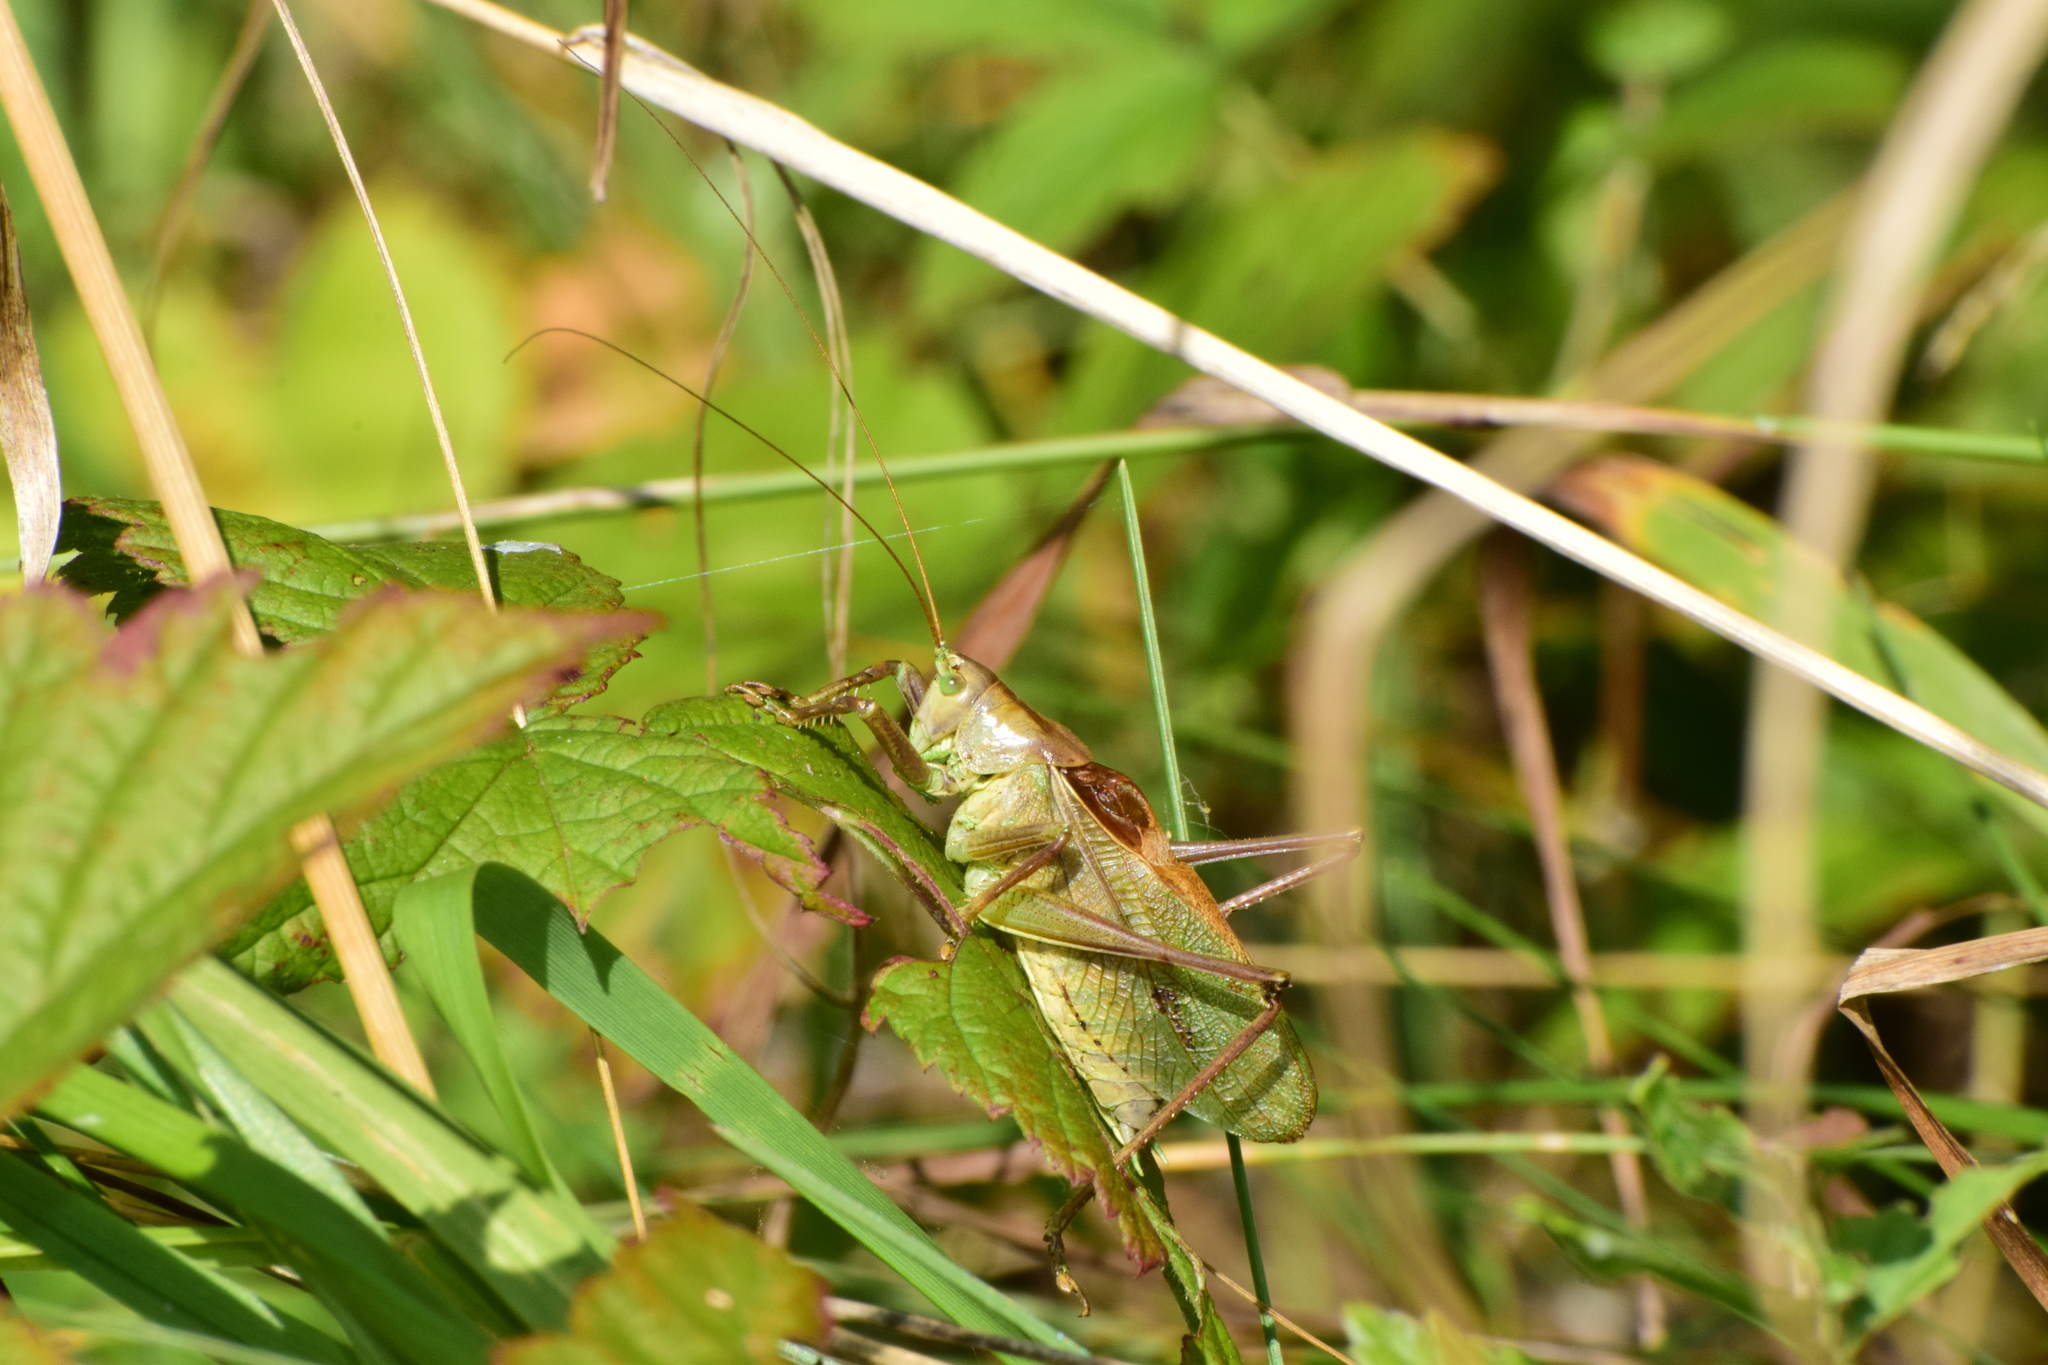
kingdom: Animalia
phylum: Arthropoda
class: Insecta
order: Orthoptera
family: Tettigoniidae
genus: Tettigonia
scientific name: Tettigonia cantans
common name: Upland green bush-cricket
